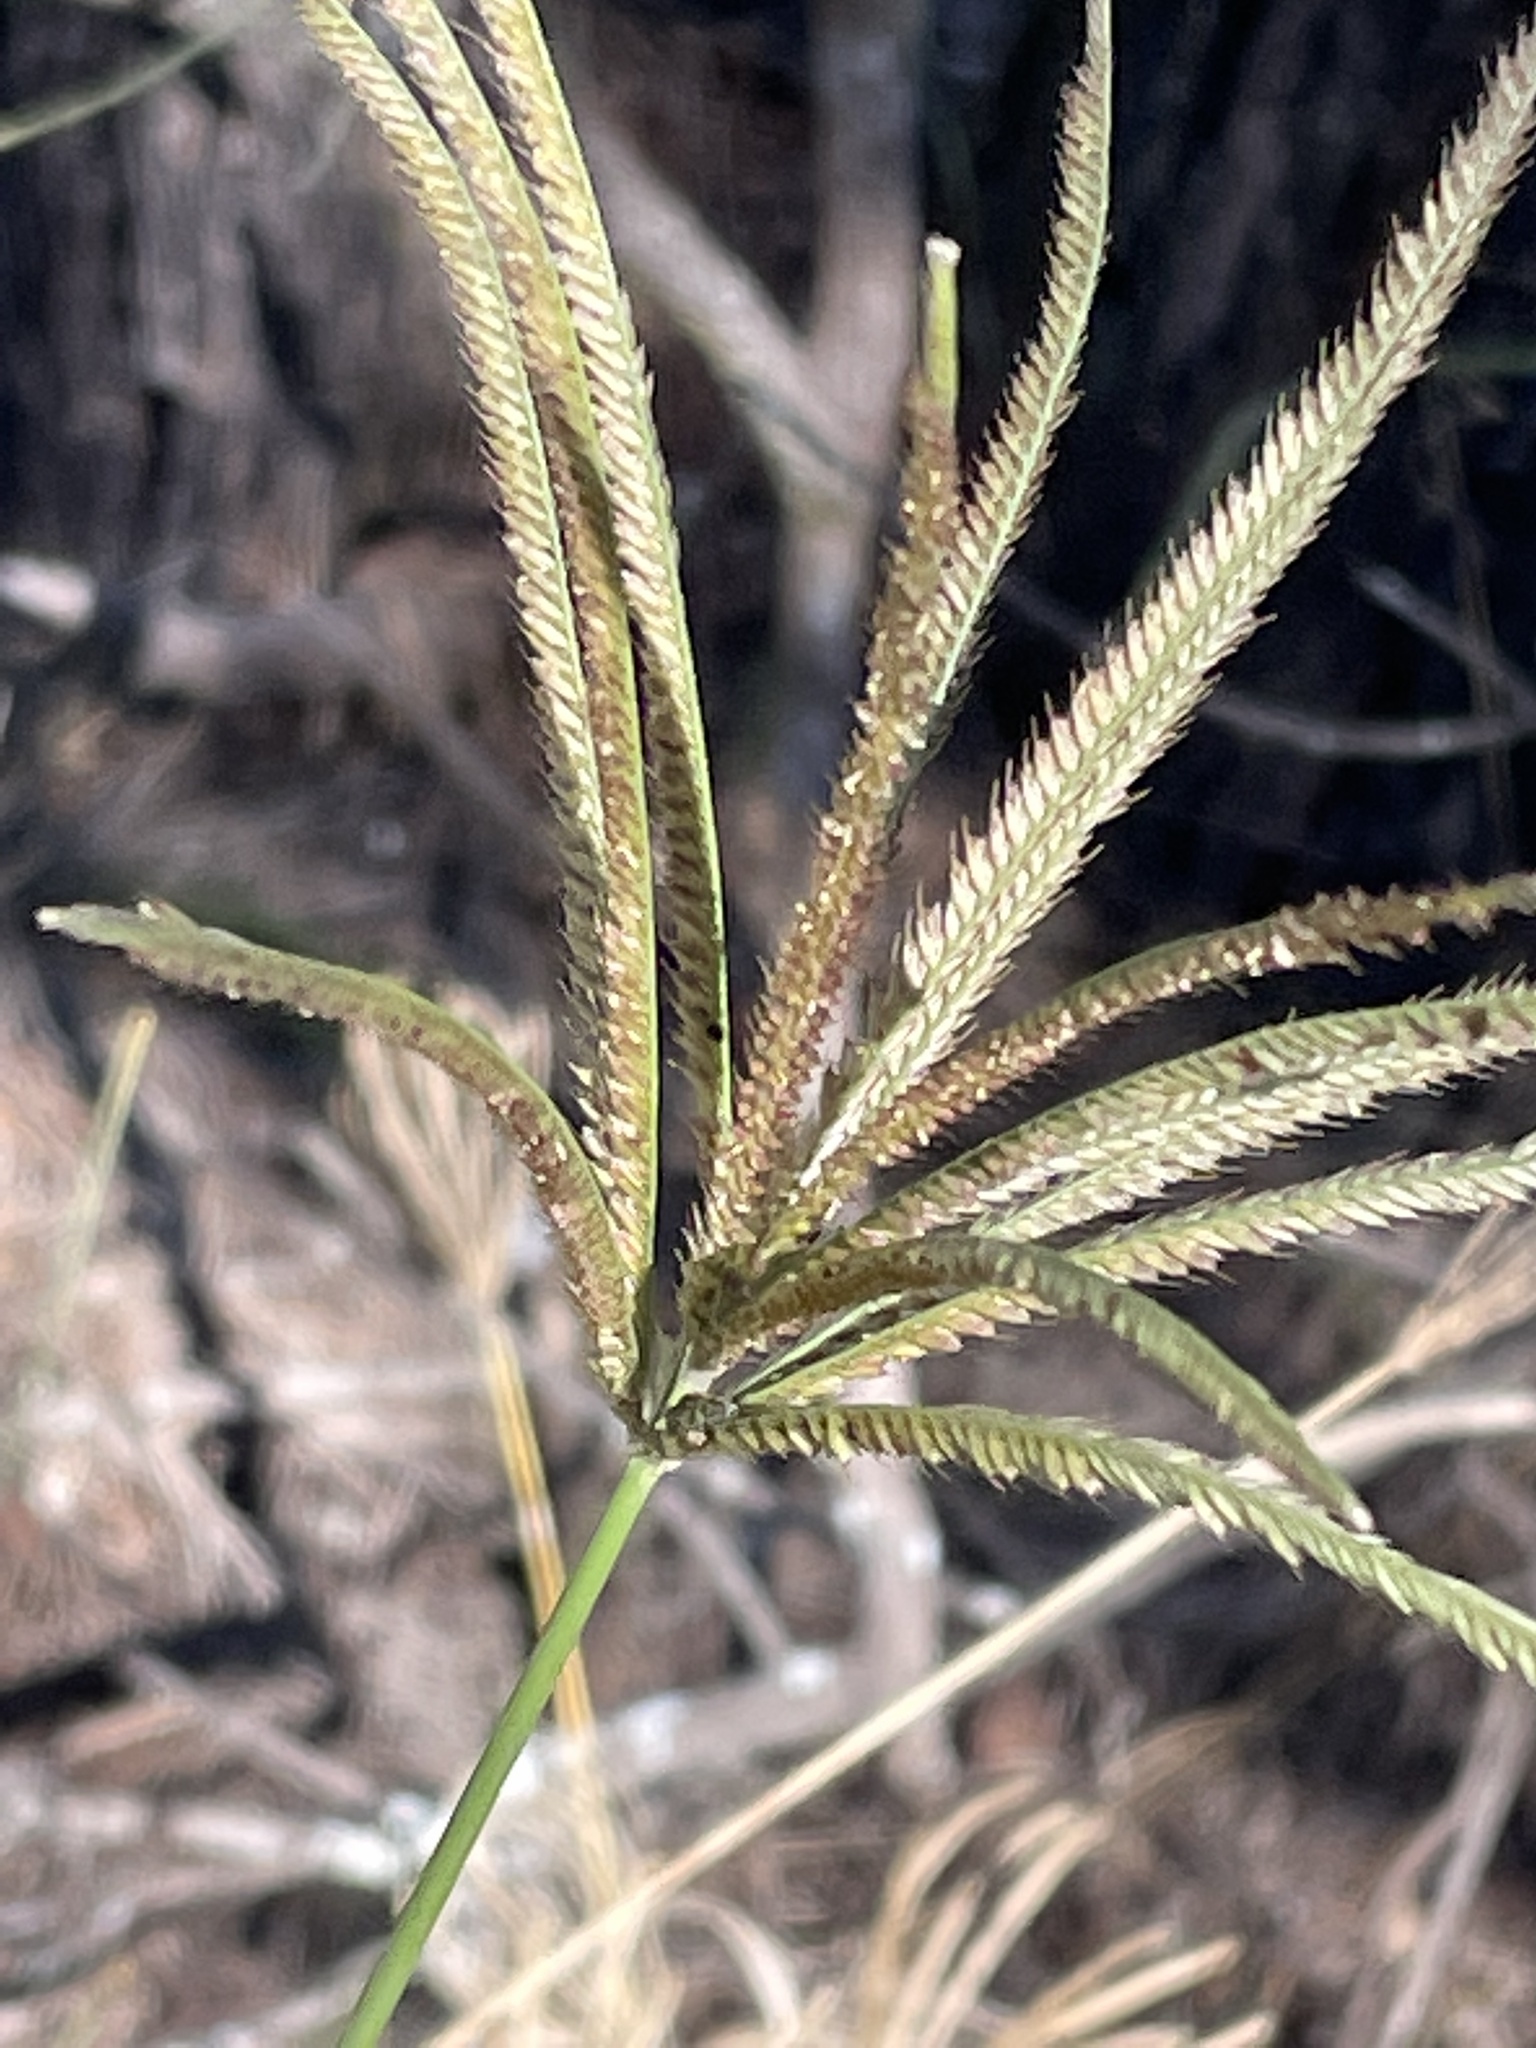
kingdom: Plantae
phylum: Tracheophyta
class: Liliopsida
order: Poales
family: Poaceae
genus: Chloris
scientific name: Chloris gayana
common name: Rhodes grass
